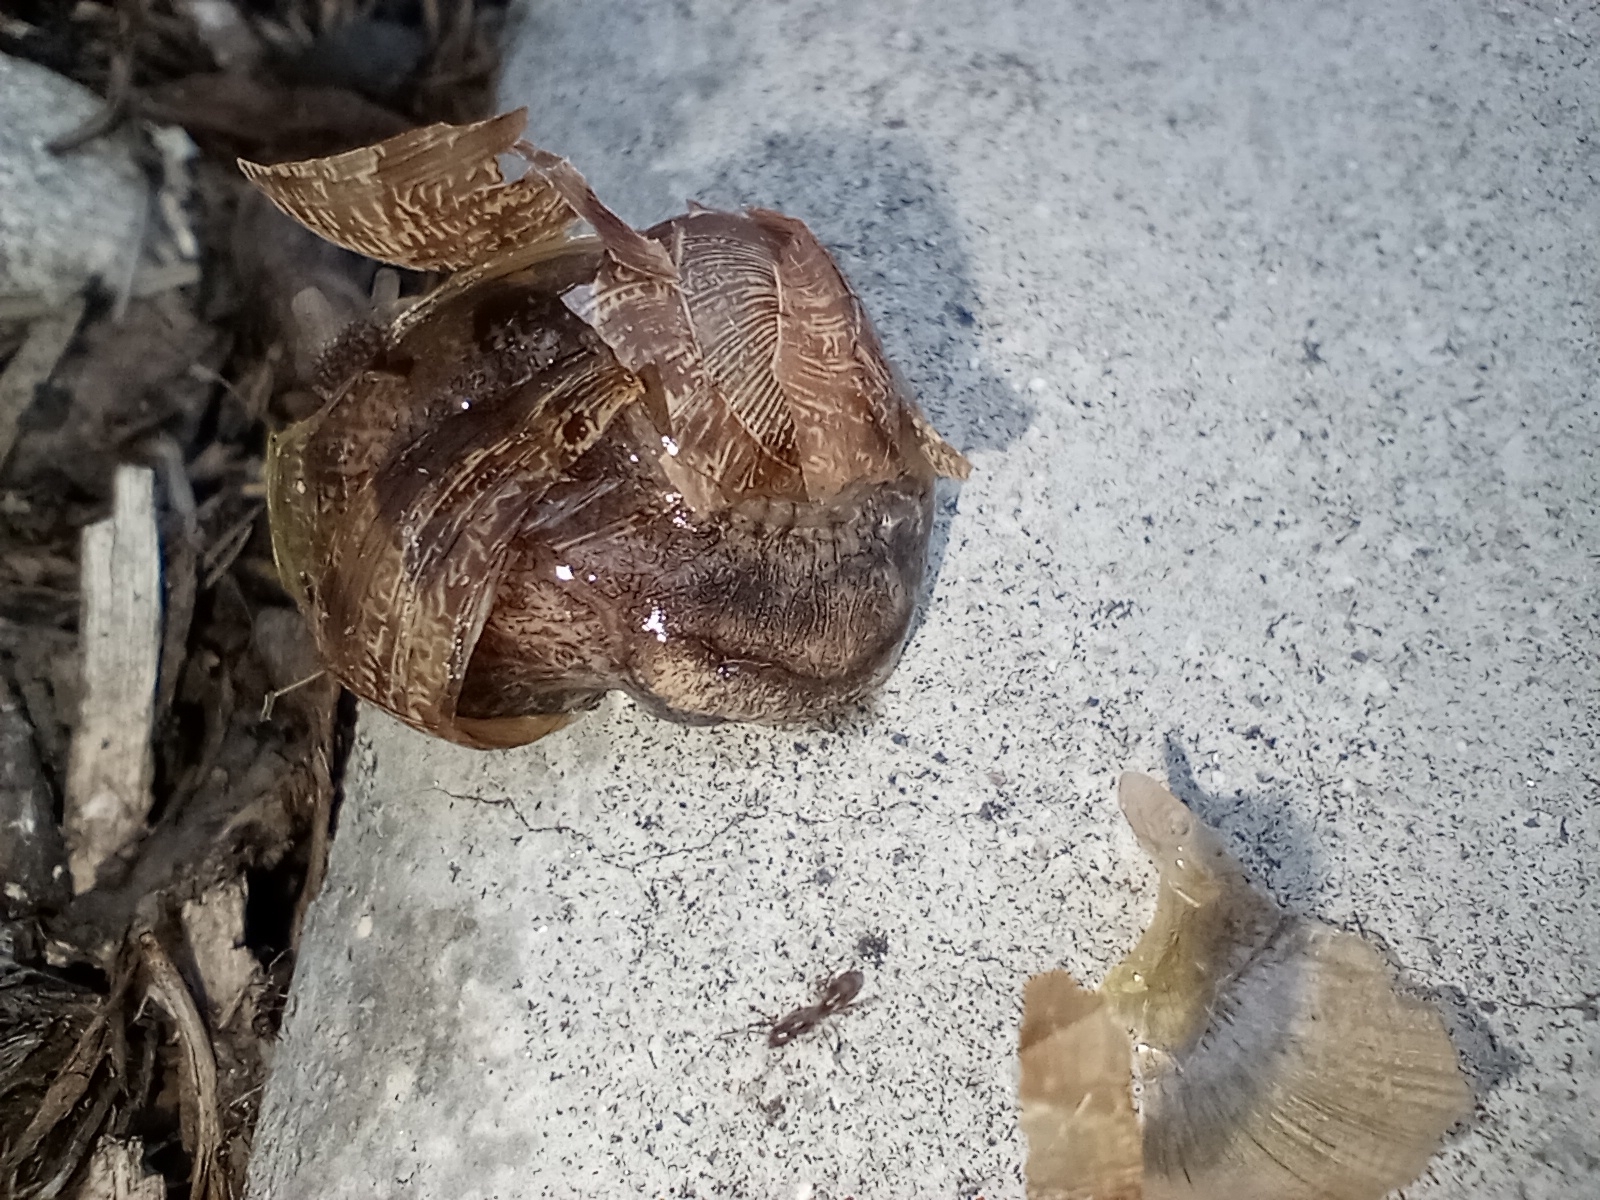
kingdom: Animalia
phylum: Mollusca
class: Gastropoda
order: Stylommatophora
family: Helicidae
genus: Cornu
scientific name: Cornu aspersum
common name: Brown garden snail
